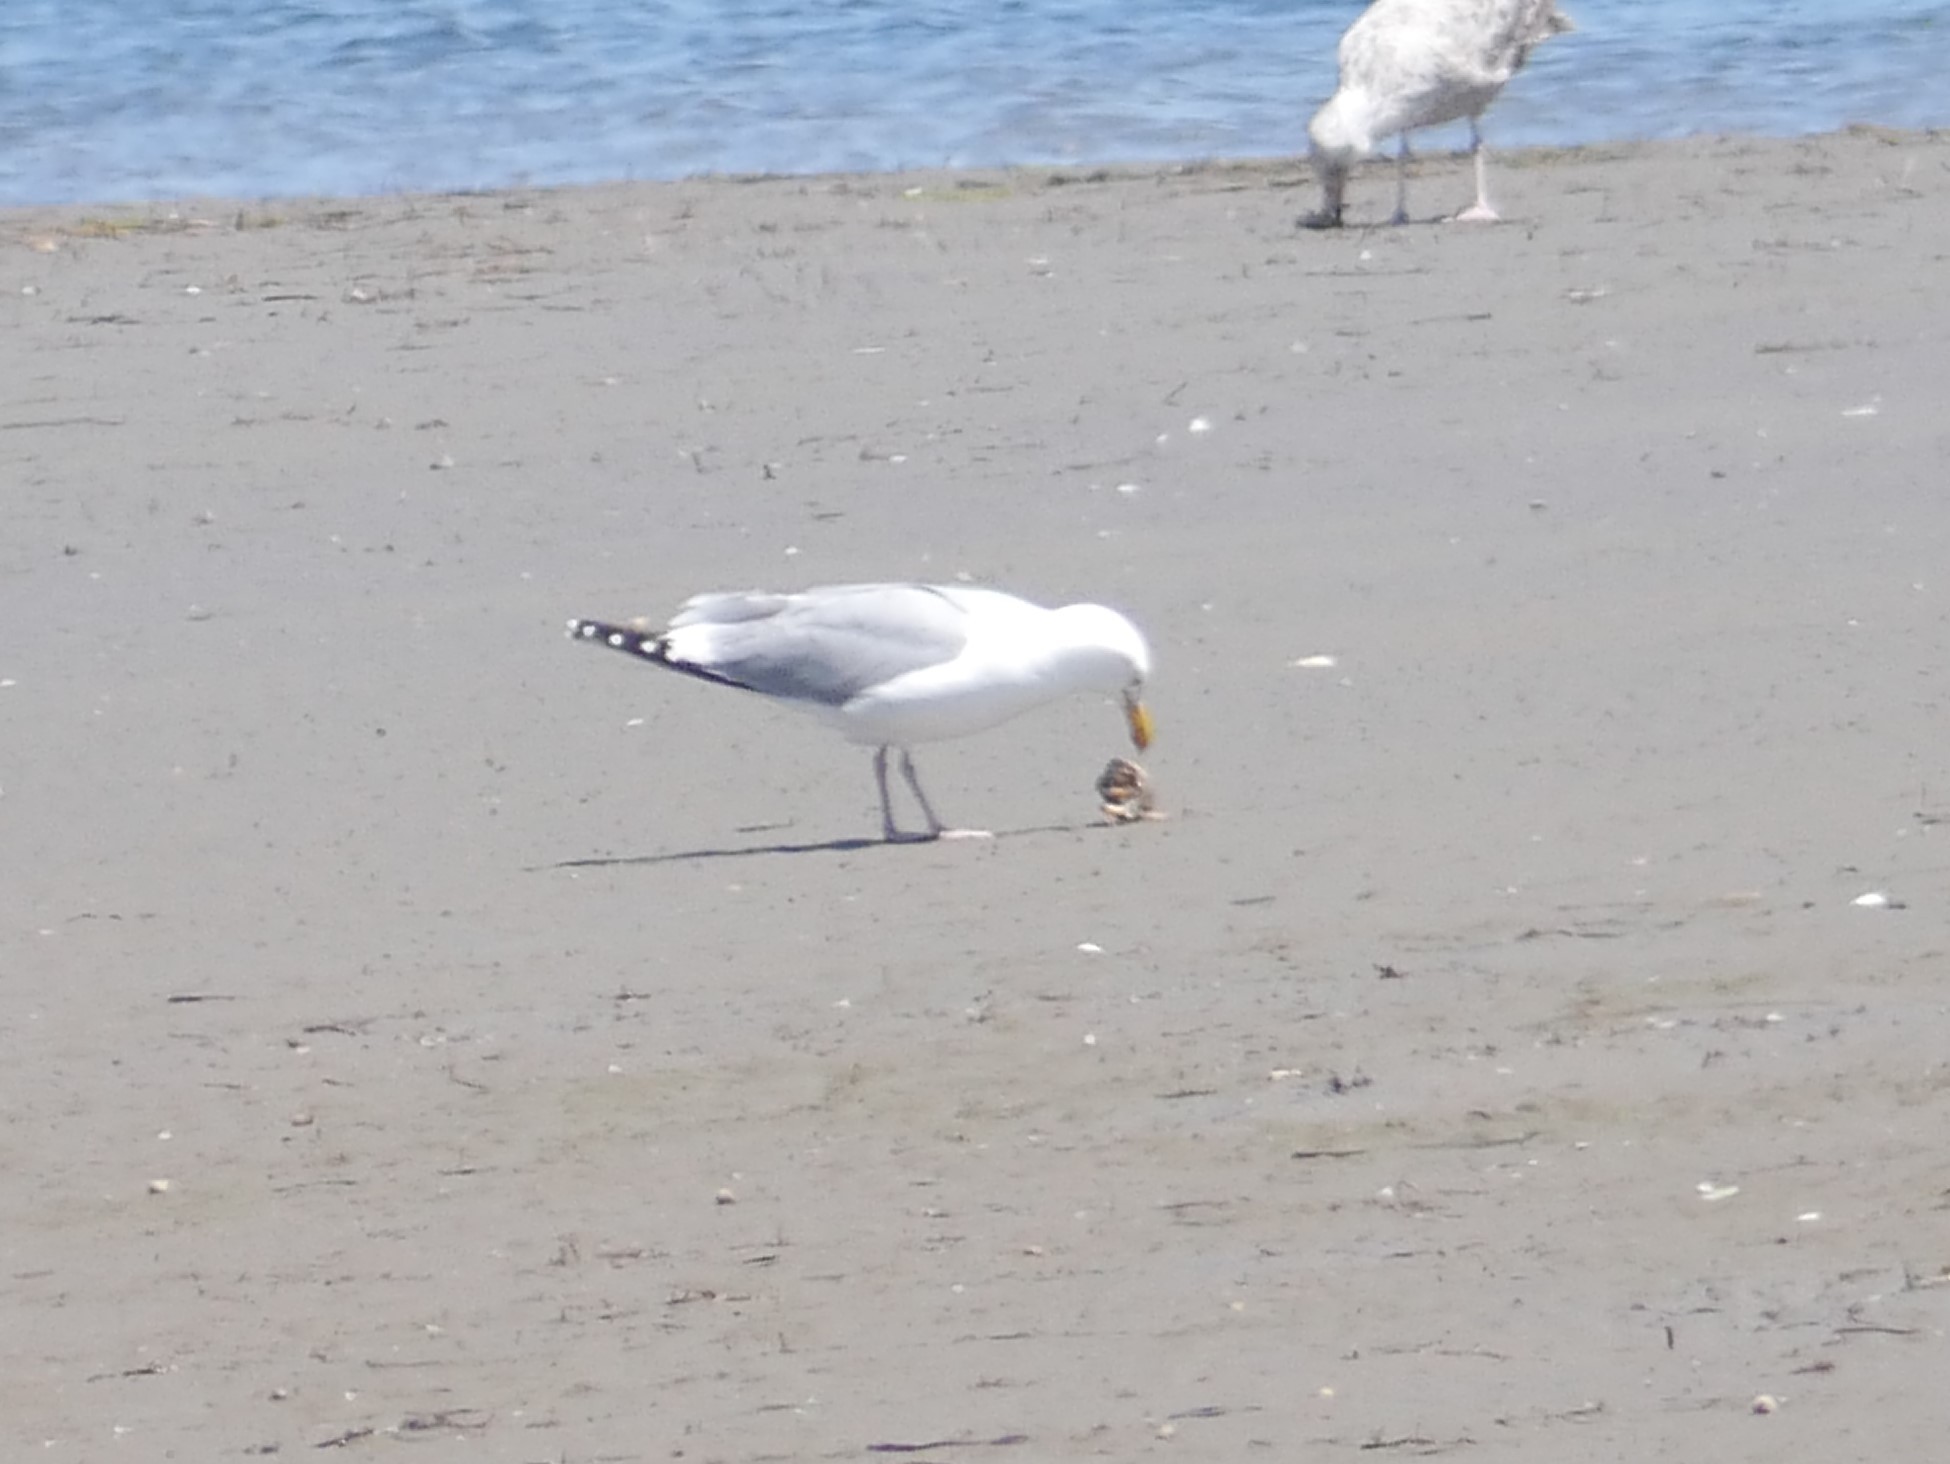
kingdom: Animalia
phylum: Chordata
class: Aves
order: Charadriiformes
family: Laridae
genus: Larus
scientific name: Larus argentatus
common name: Herring gull
